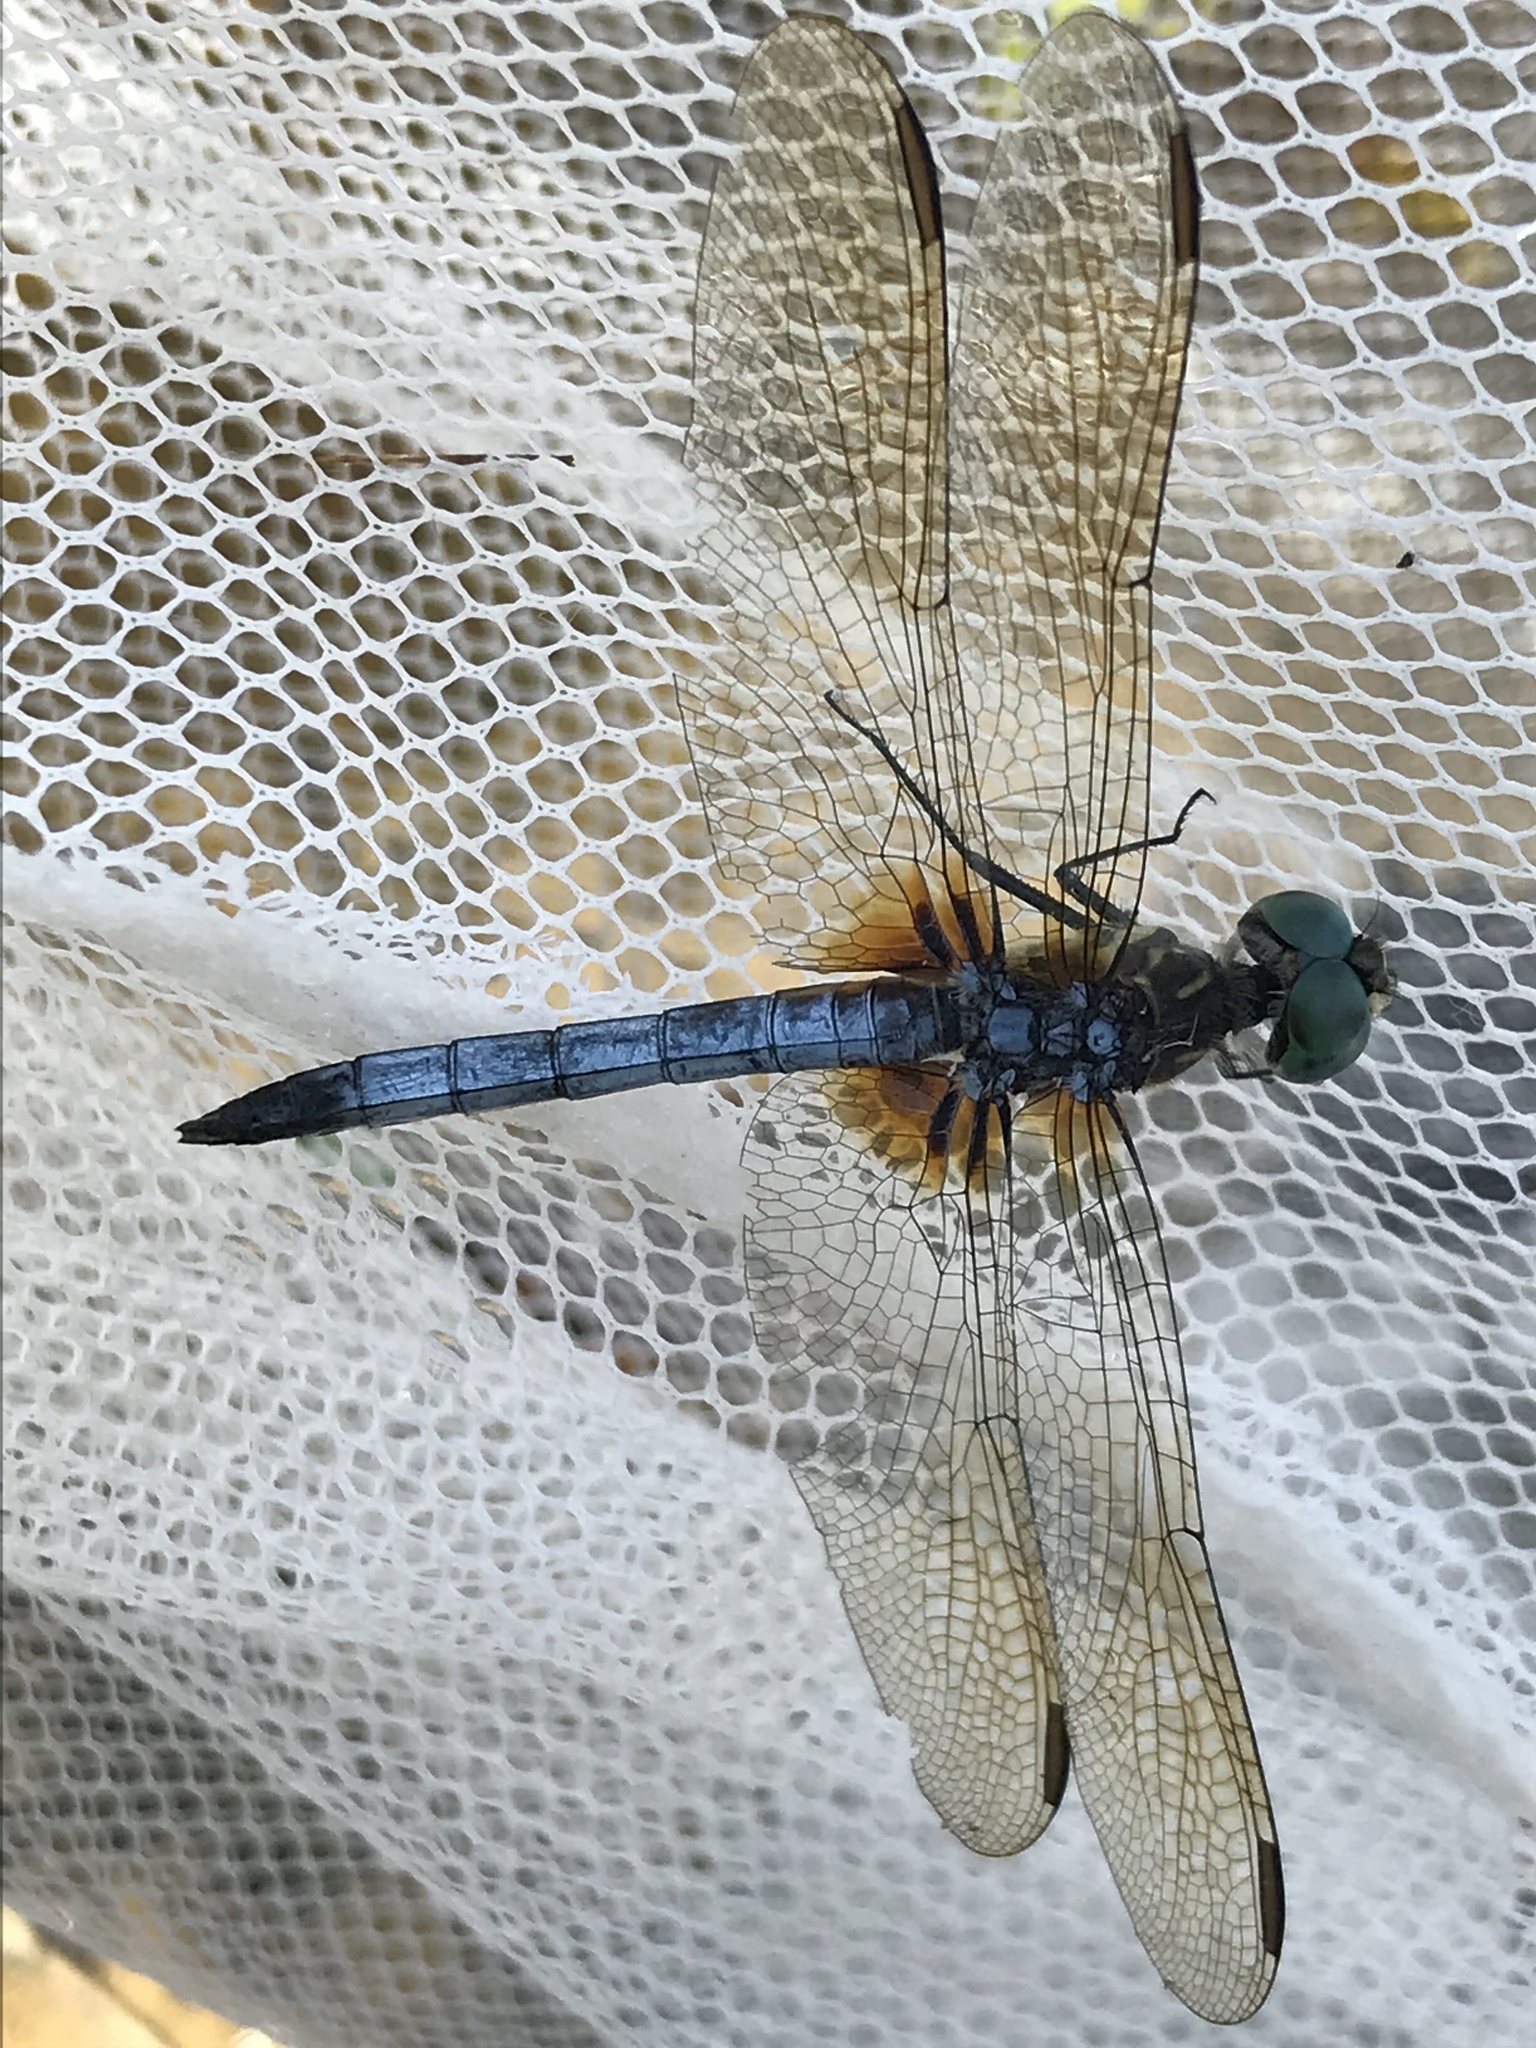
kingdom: Animalia
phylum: Arthropoda
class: Insecta
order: Odonata
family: Libellulidae
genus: Pachydiplax
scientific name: Pachydiplax longipennis
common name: Blue dasher
